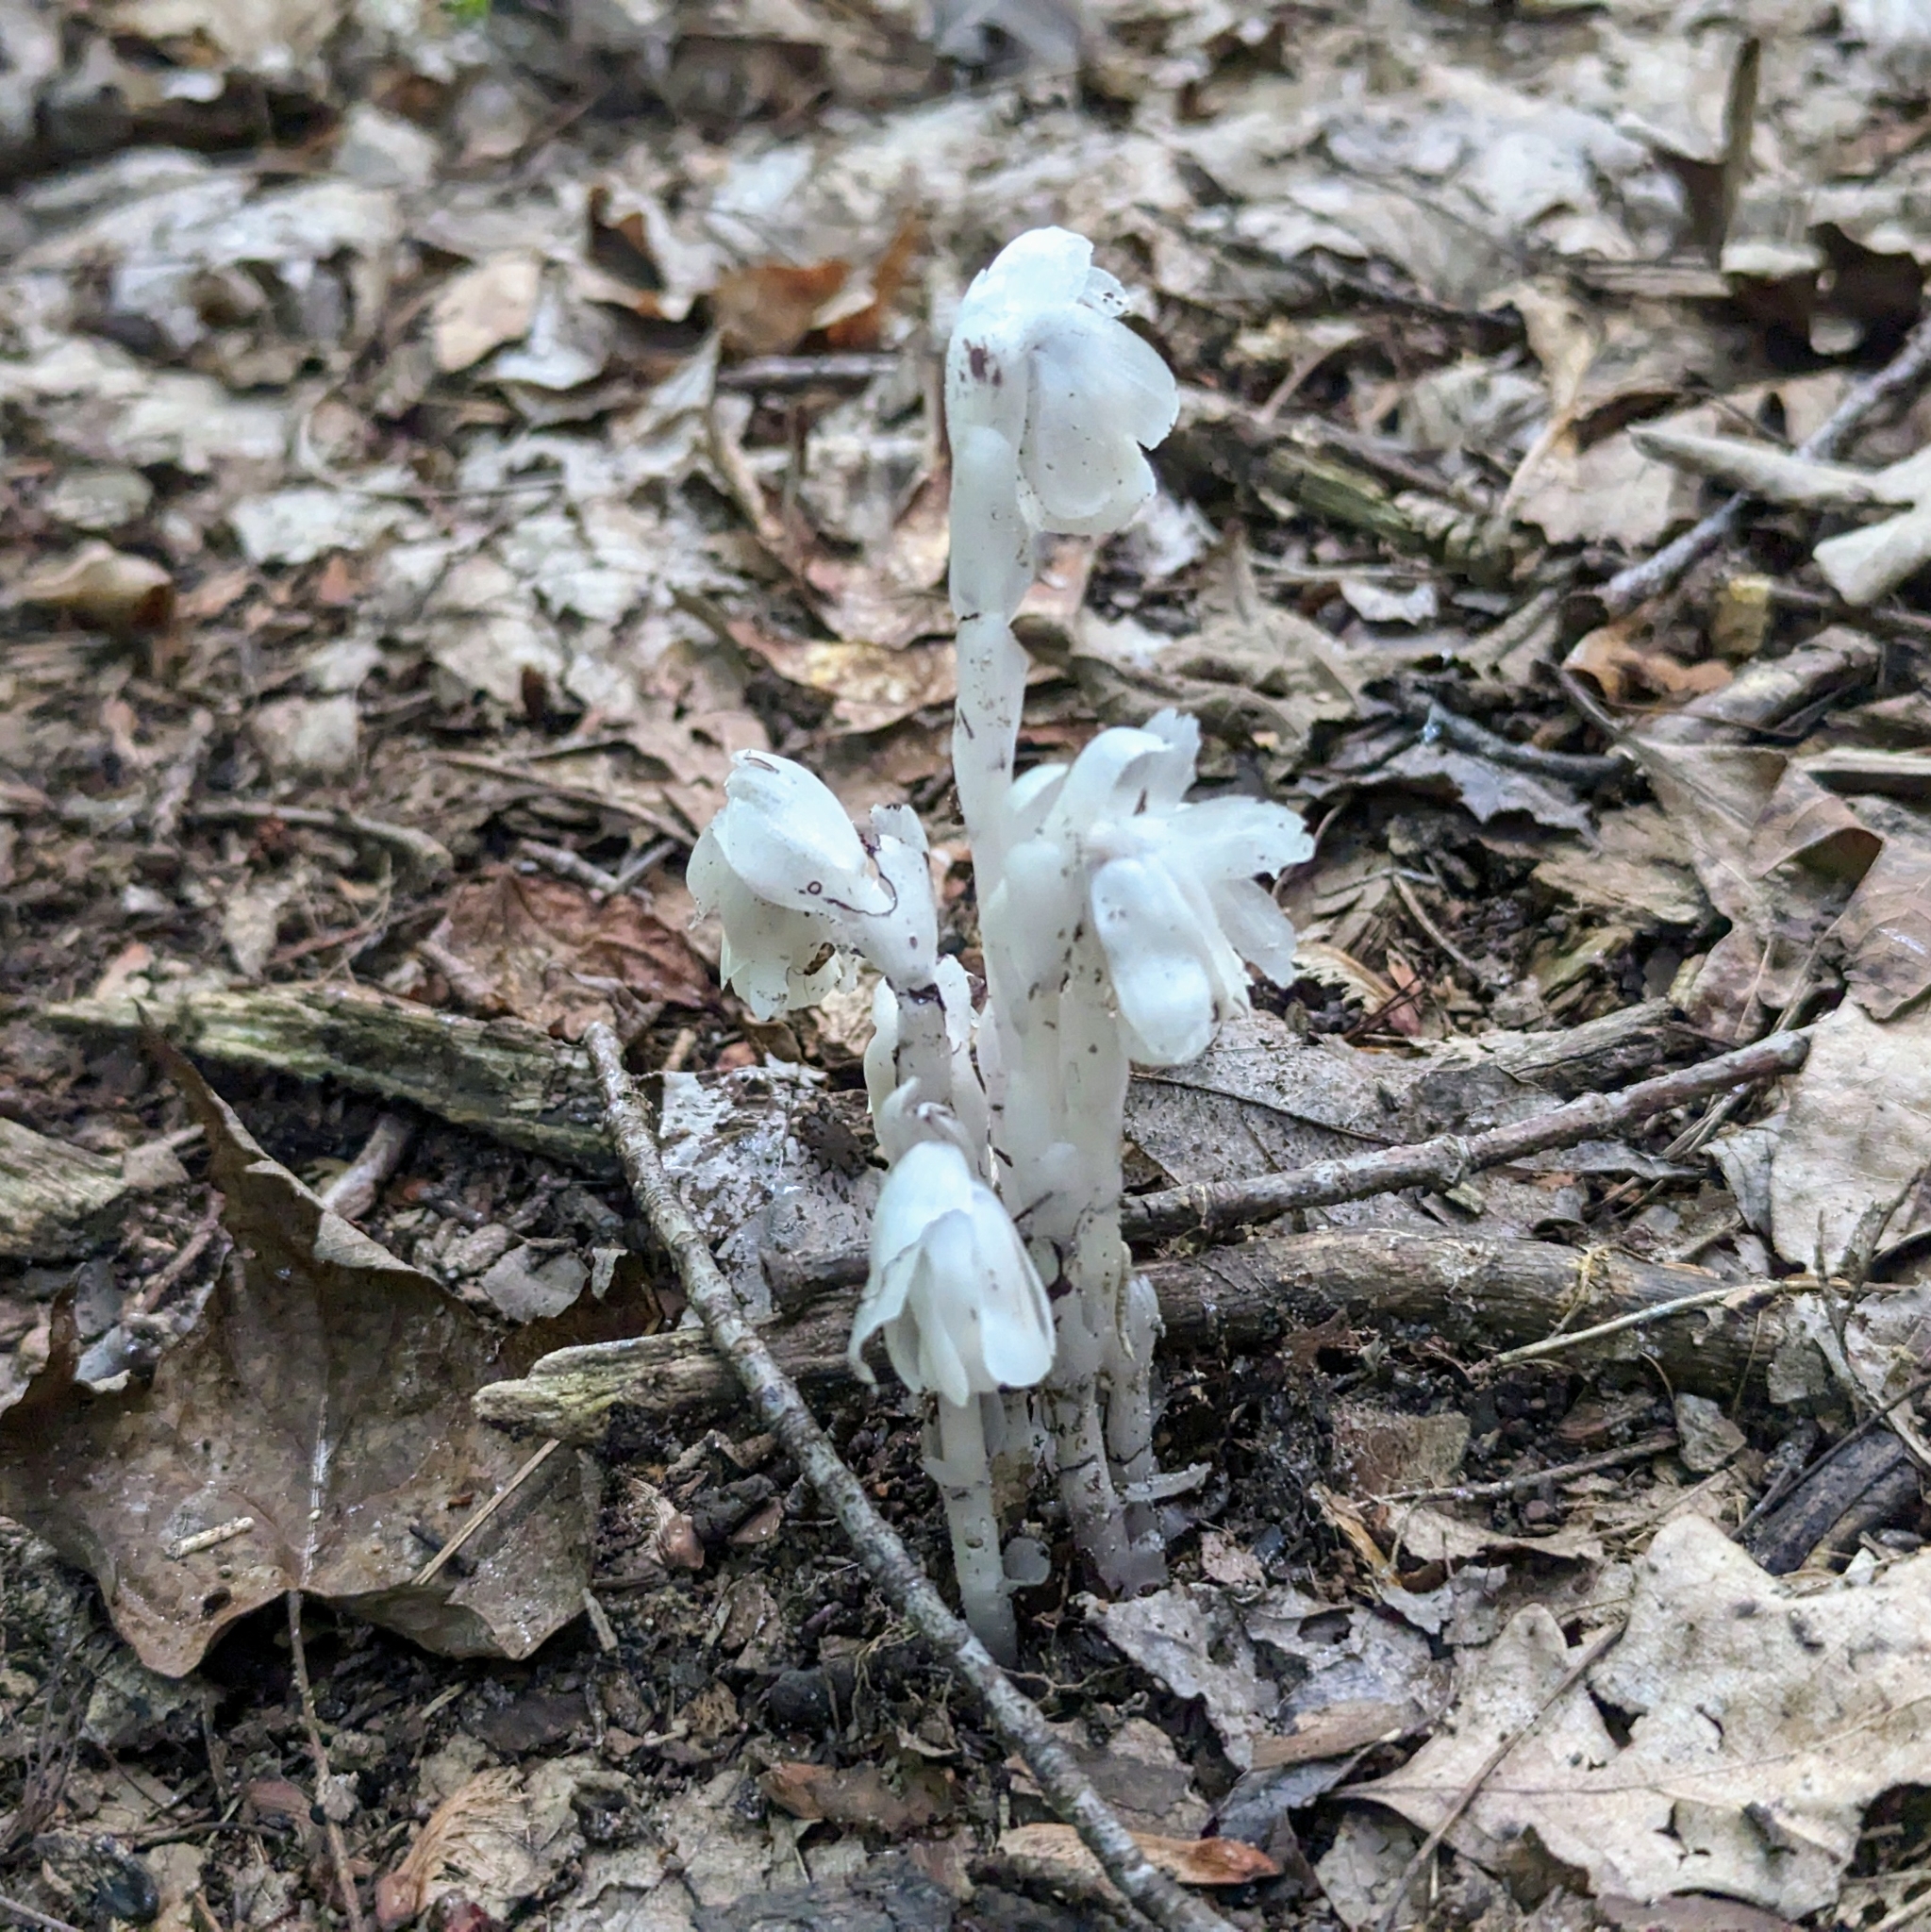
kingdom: Plantae
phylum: Tracheophyta
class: Magnoliopsida
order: Ericales
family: Ericaceae
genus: Monotropa
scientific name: Monotropa uniflora
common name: Convulsion root
